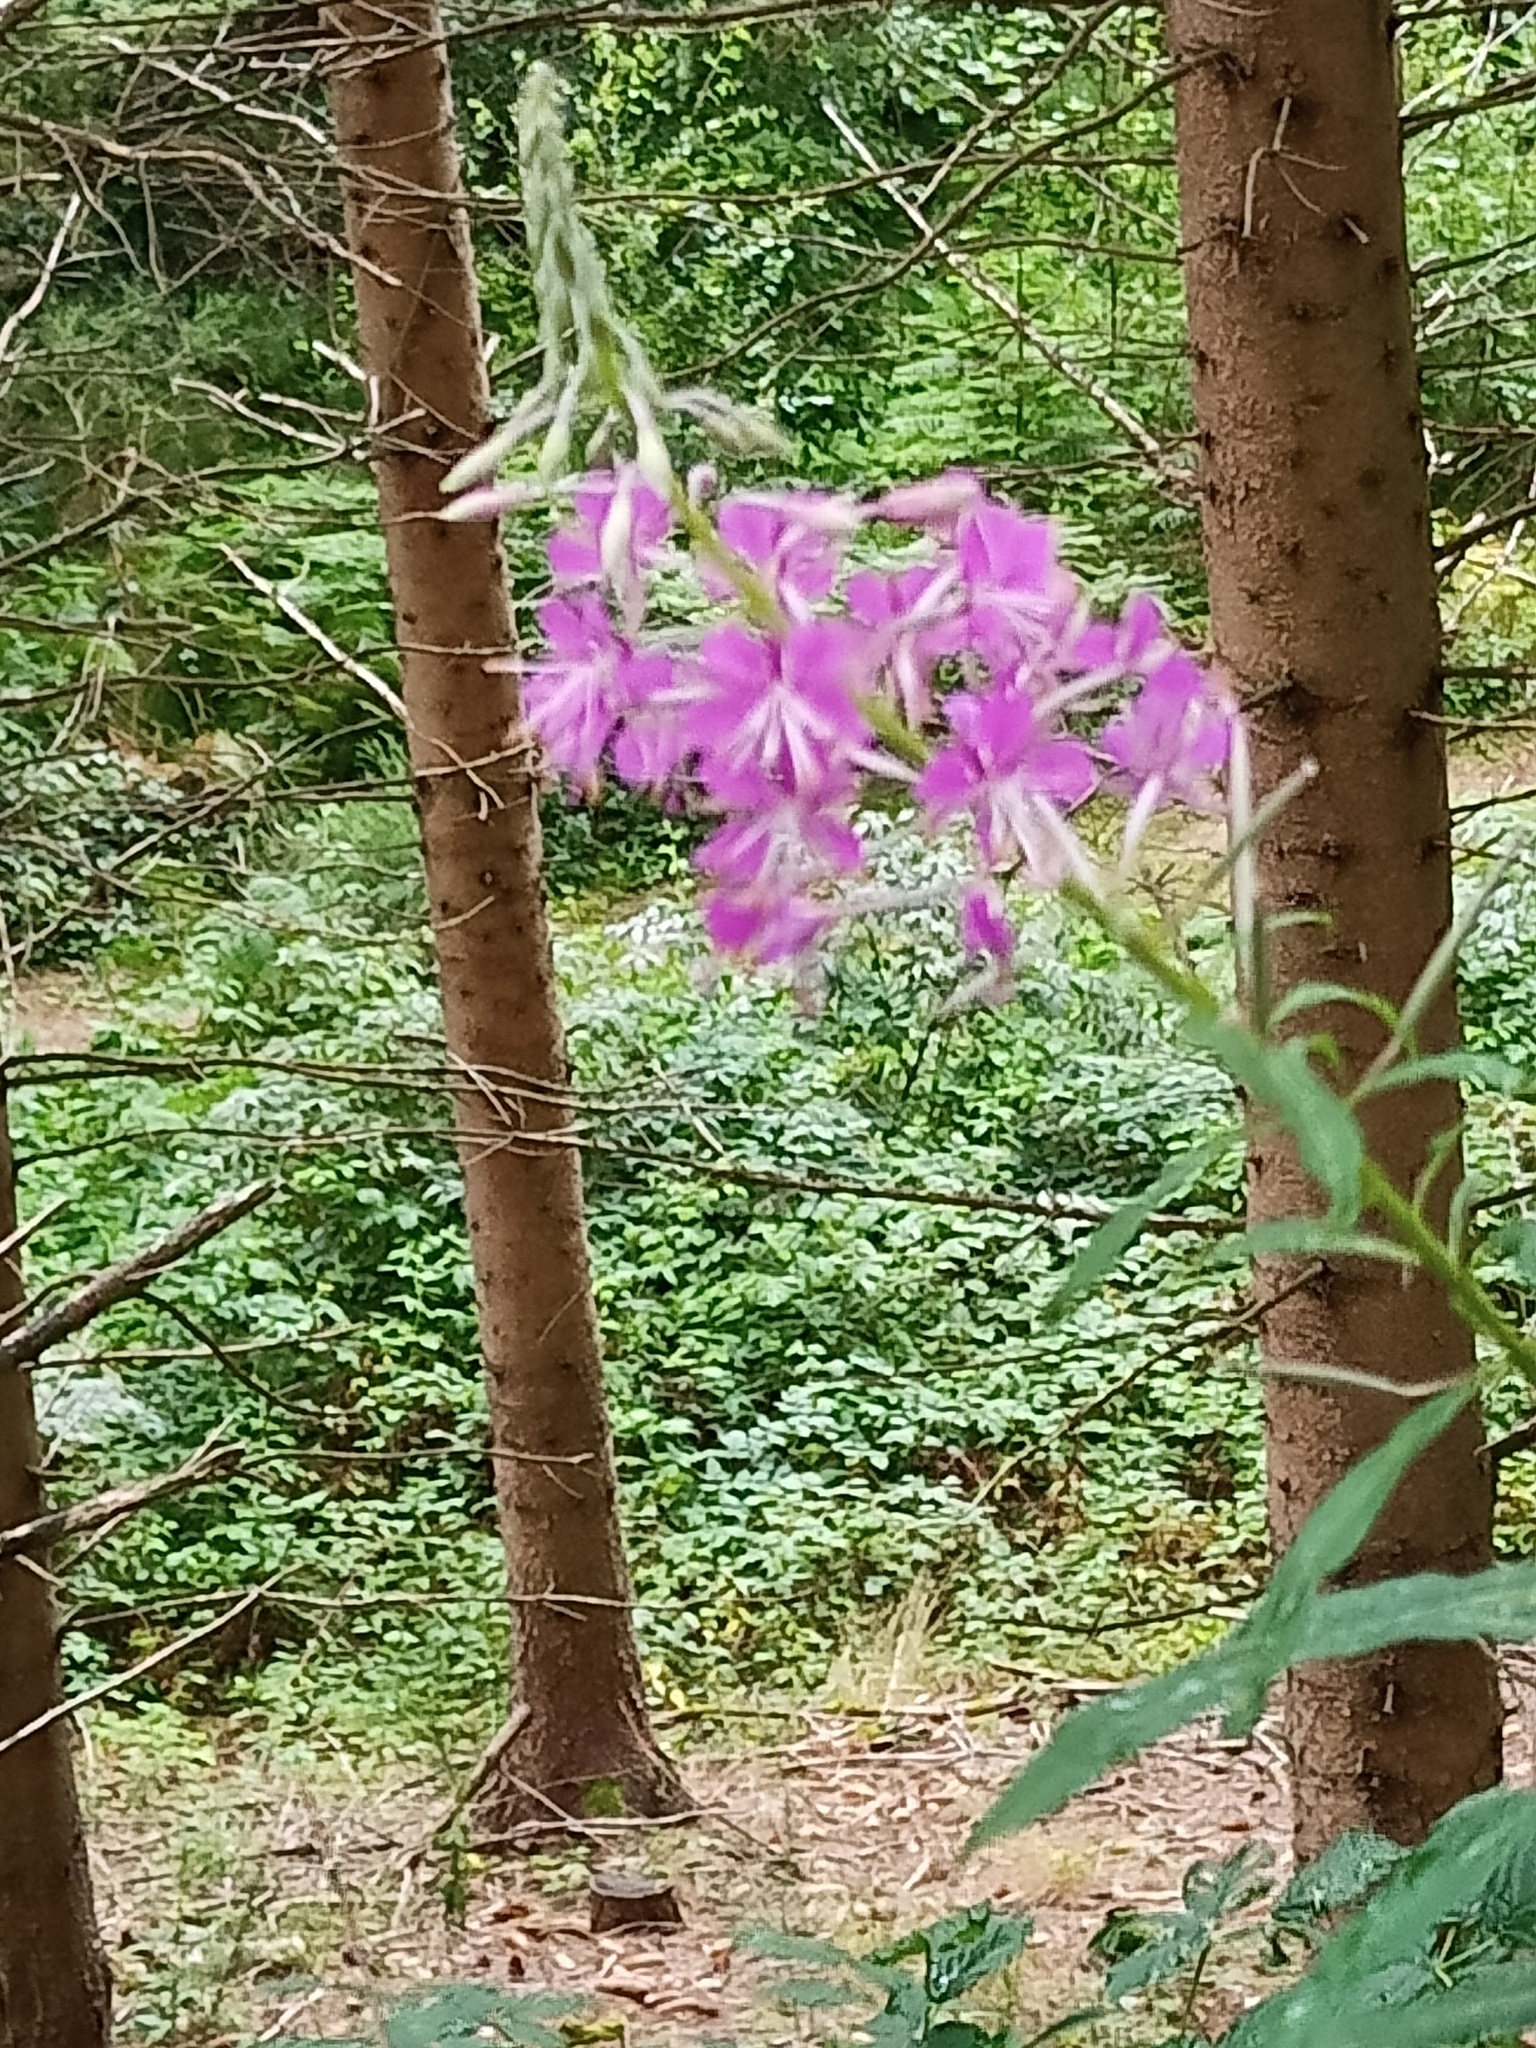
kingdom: Plantae
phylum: Tracheophyta
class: Magnoliopsida
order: Myrtales
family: Onagraceae
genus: Chamaenerion
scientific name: Chamaenerion angustifolium
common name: Fireweed
